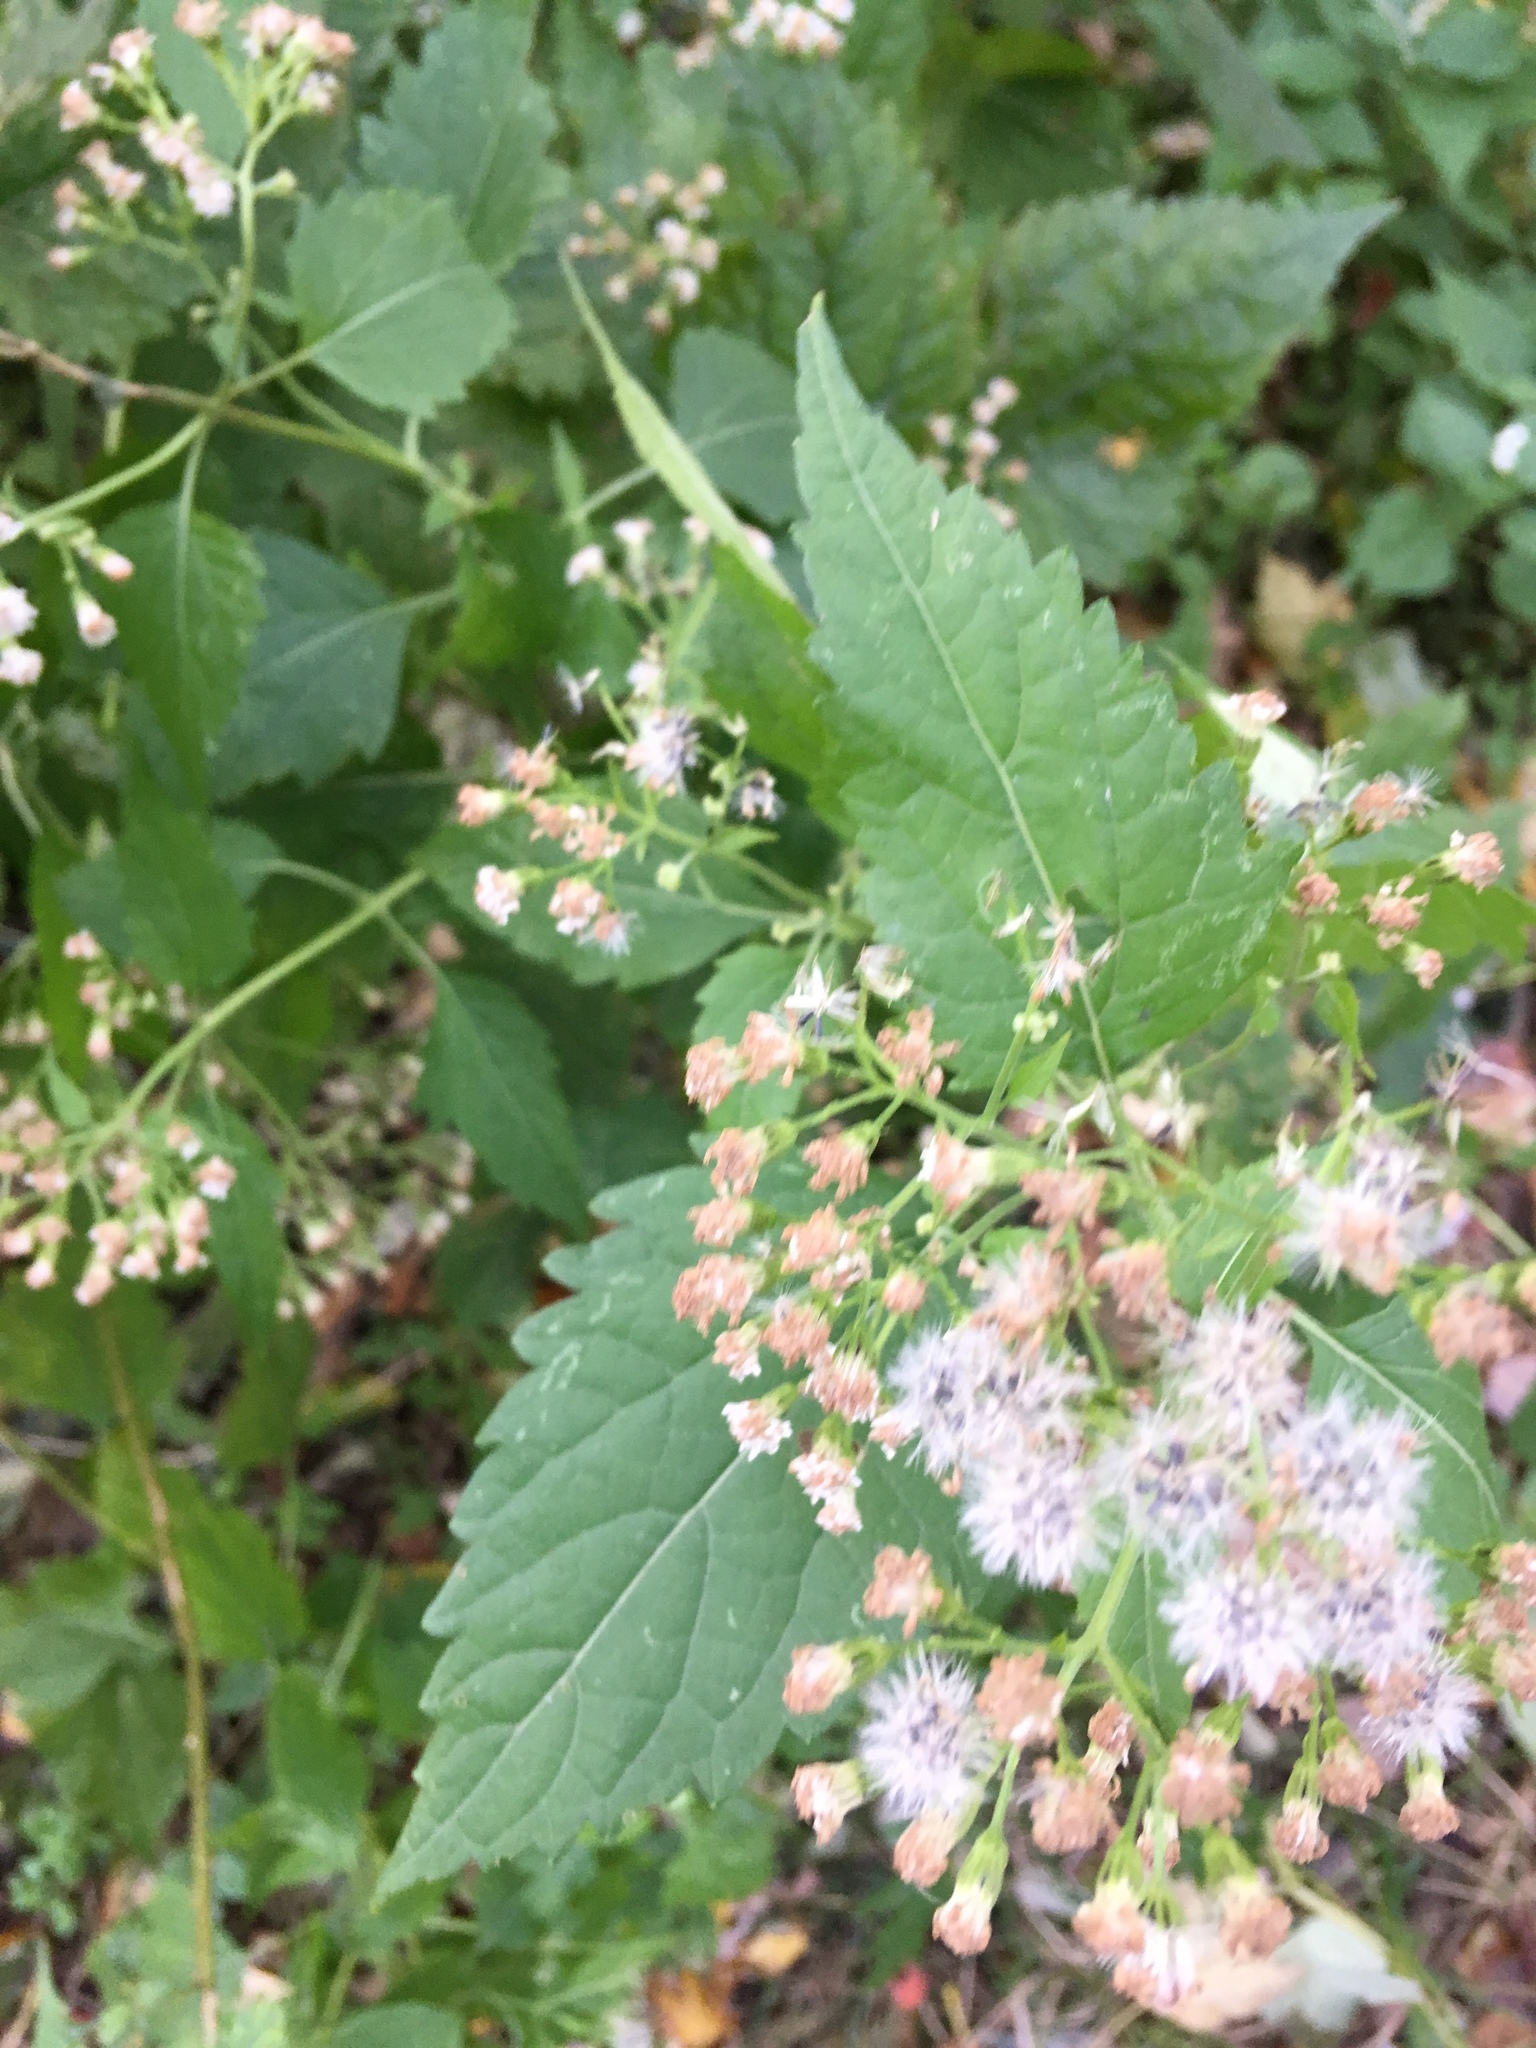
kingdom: Plantae
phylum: Tracheophyta
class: Magnoliopsida
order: Asterales
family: Asteraceae
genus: Ageratina
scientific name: Ageratina altissima
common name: White snakeroot
